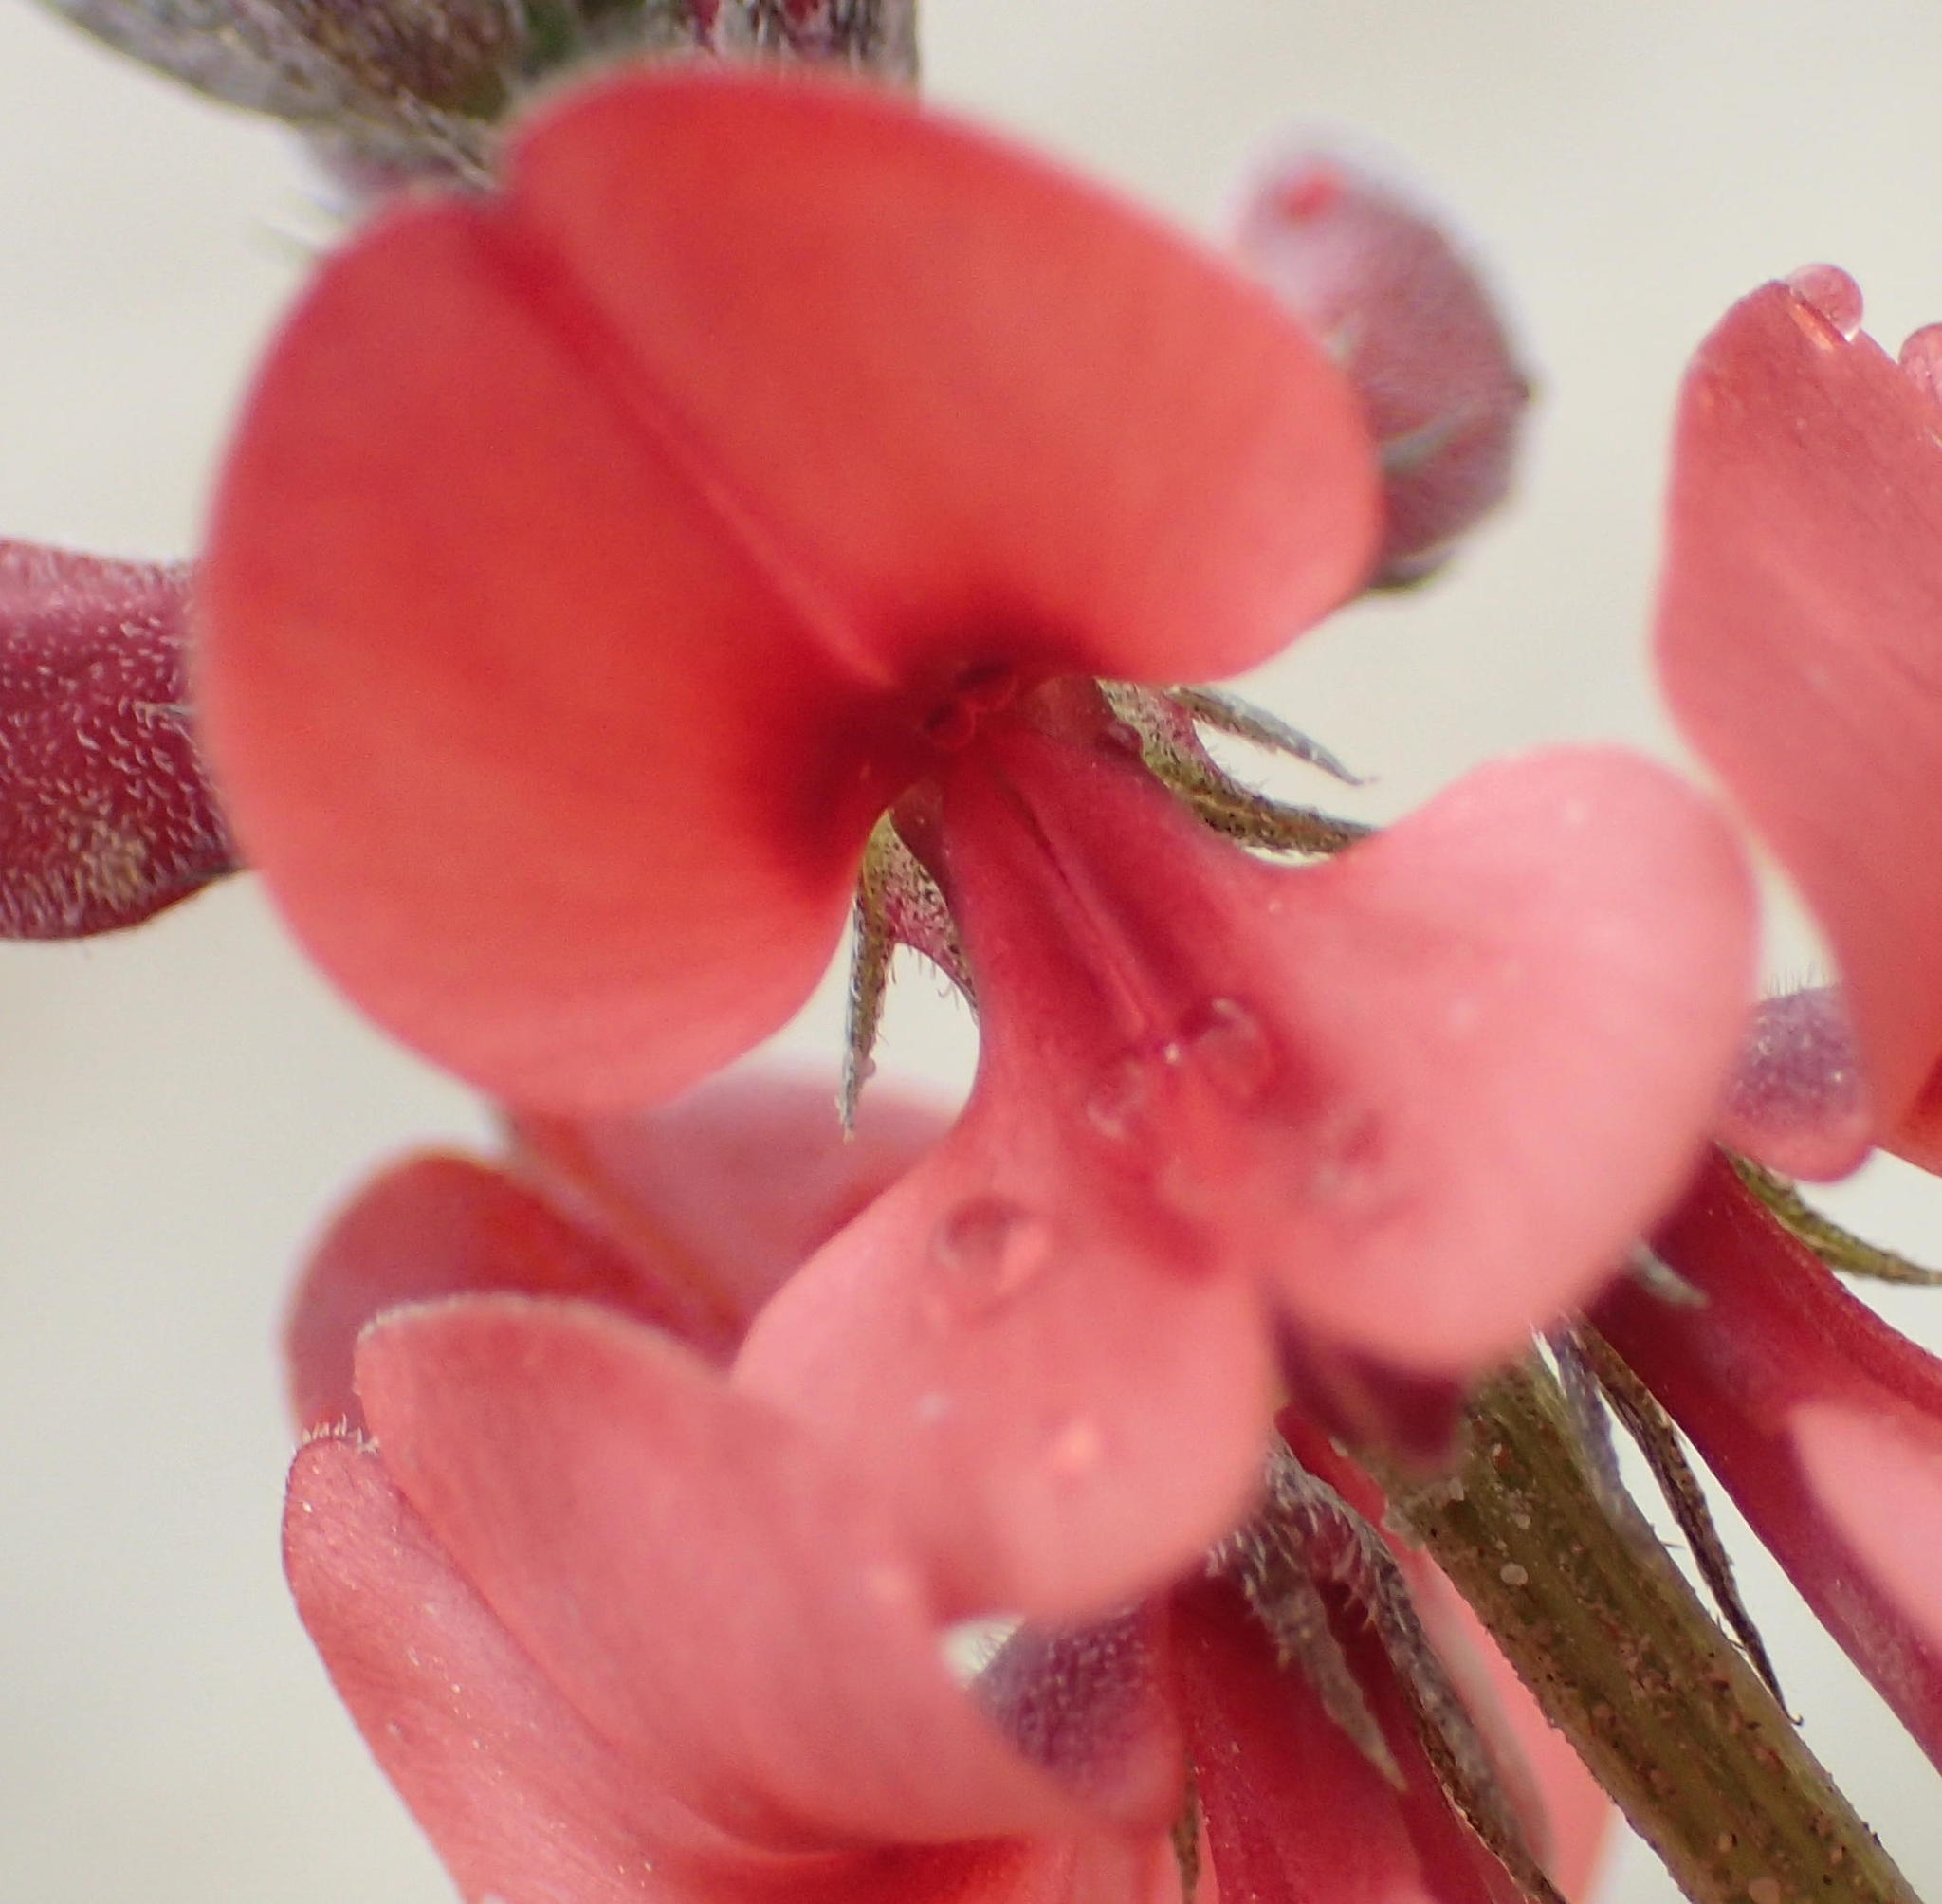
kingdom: Plantae
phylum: Tracheophyta
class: Magnoliopsida
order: Fabales
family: Fabaceae
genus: Indigofera
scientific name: Indigofera heterophylla
